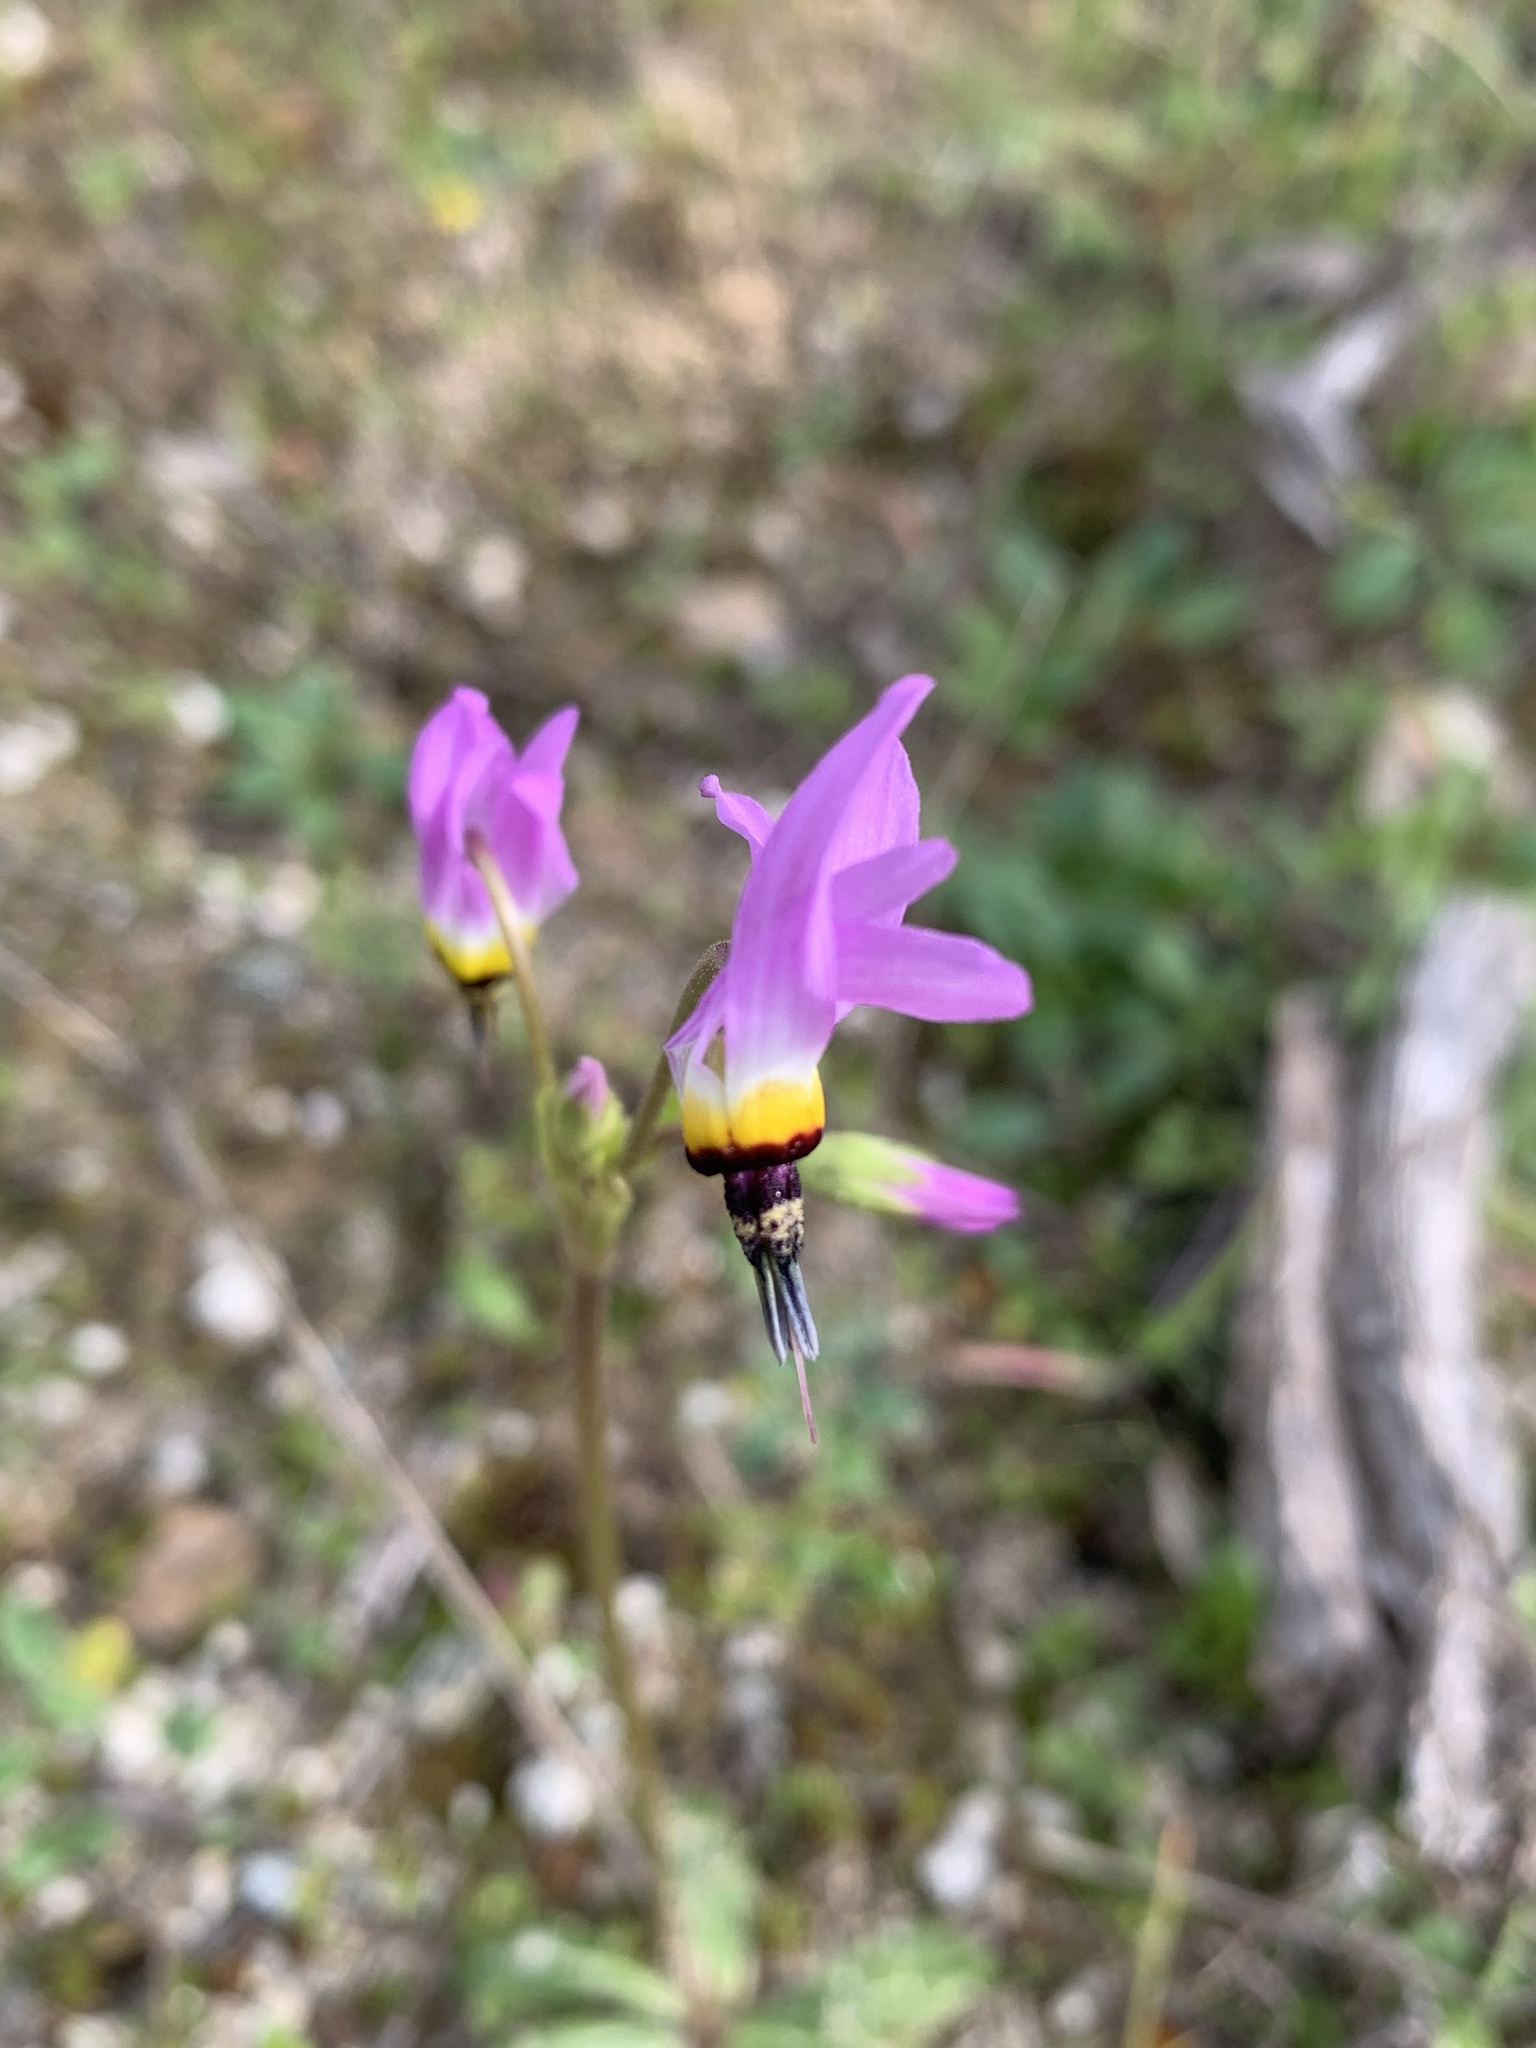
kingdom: Plantae
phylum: Tracheophyta
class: Magnoliopsida
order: Ericales
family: Primulaceae
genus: Dodecatheon
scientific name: Dodecatheon clevelandii
